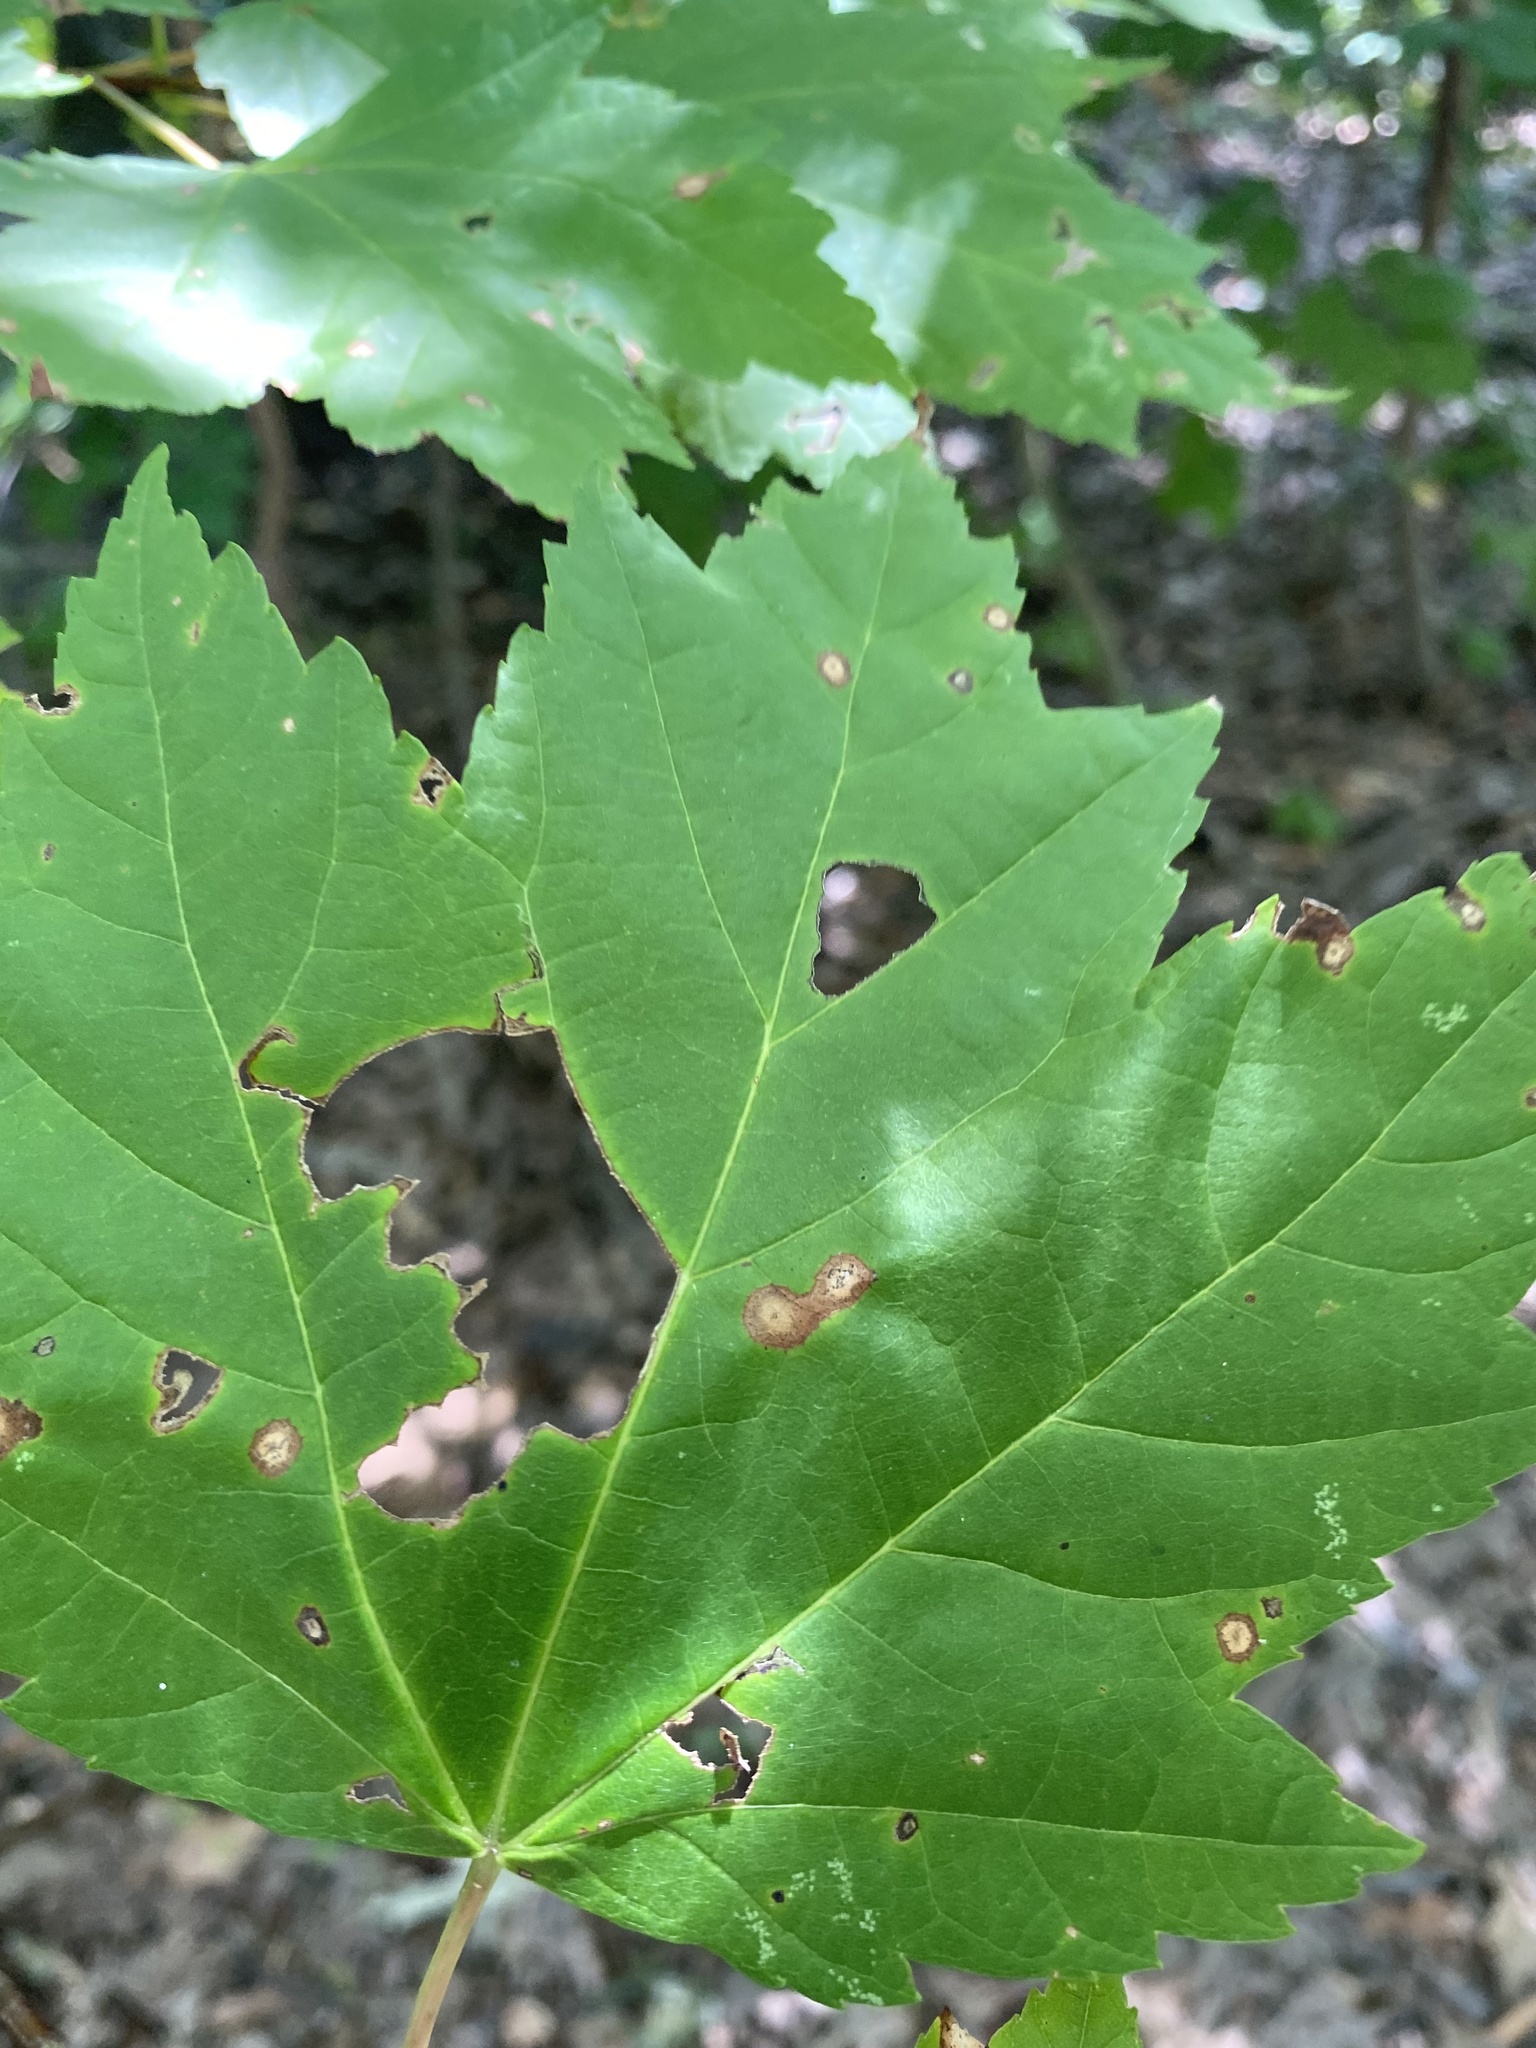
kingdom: Animalia
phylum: Arthropoda
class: Insecta
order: Diptera
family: Cecidomyiidae
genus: Acericecis
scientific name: Acericecis ocellaris
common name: Ocellate gall midge
